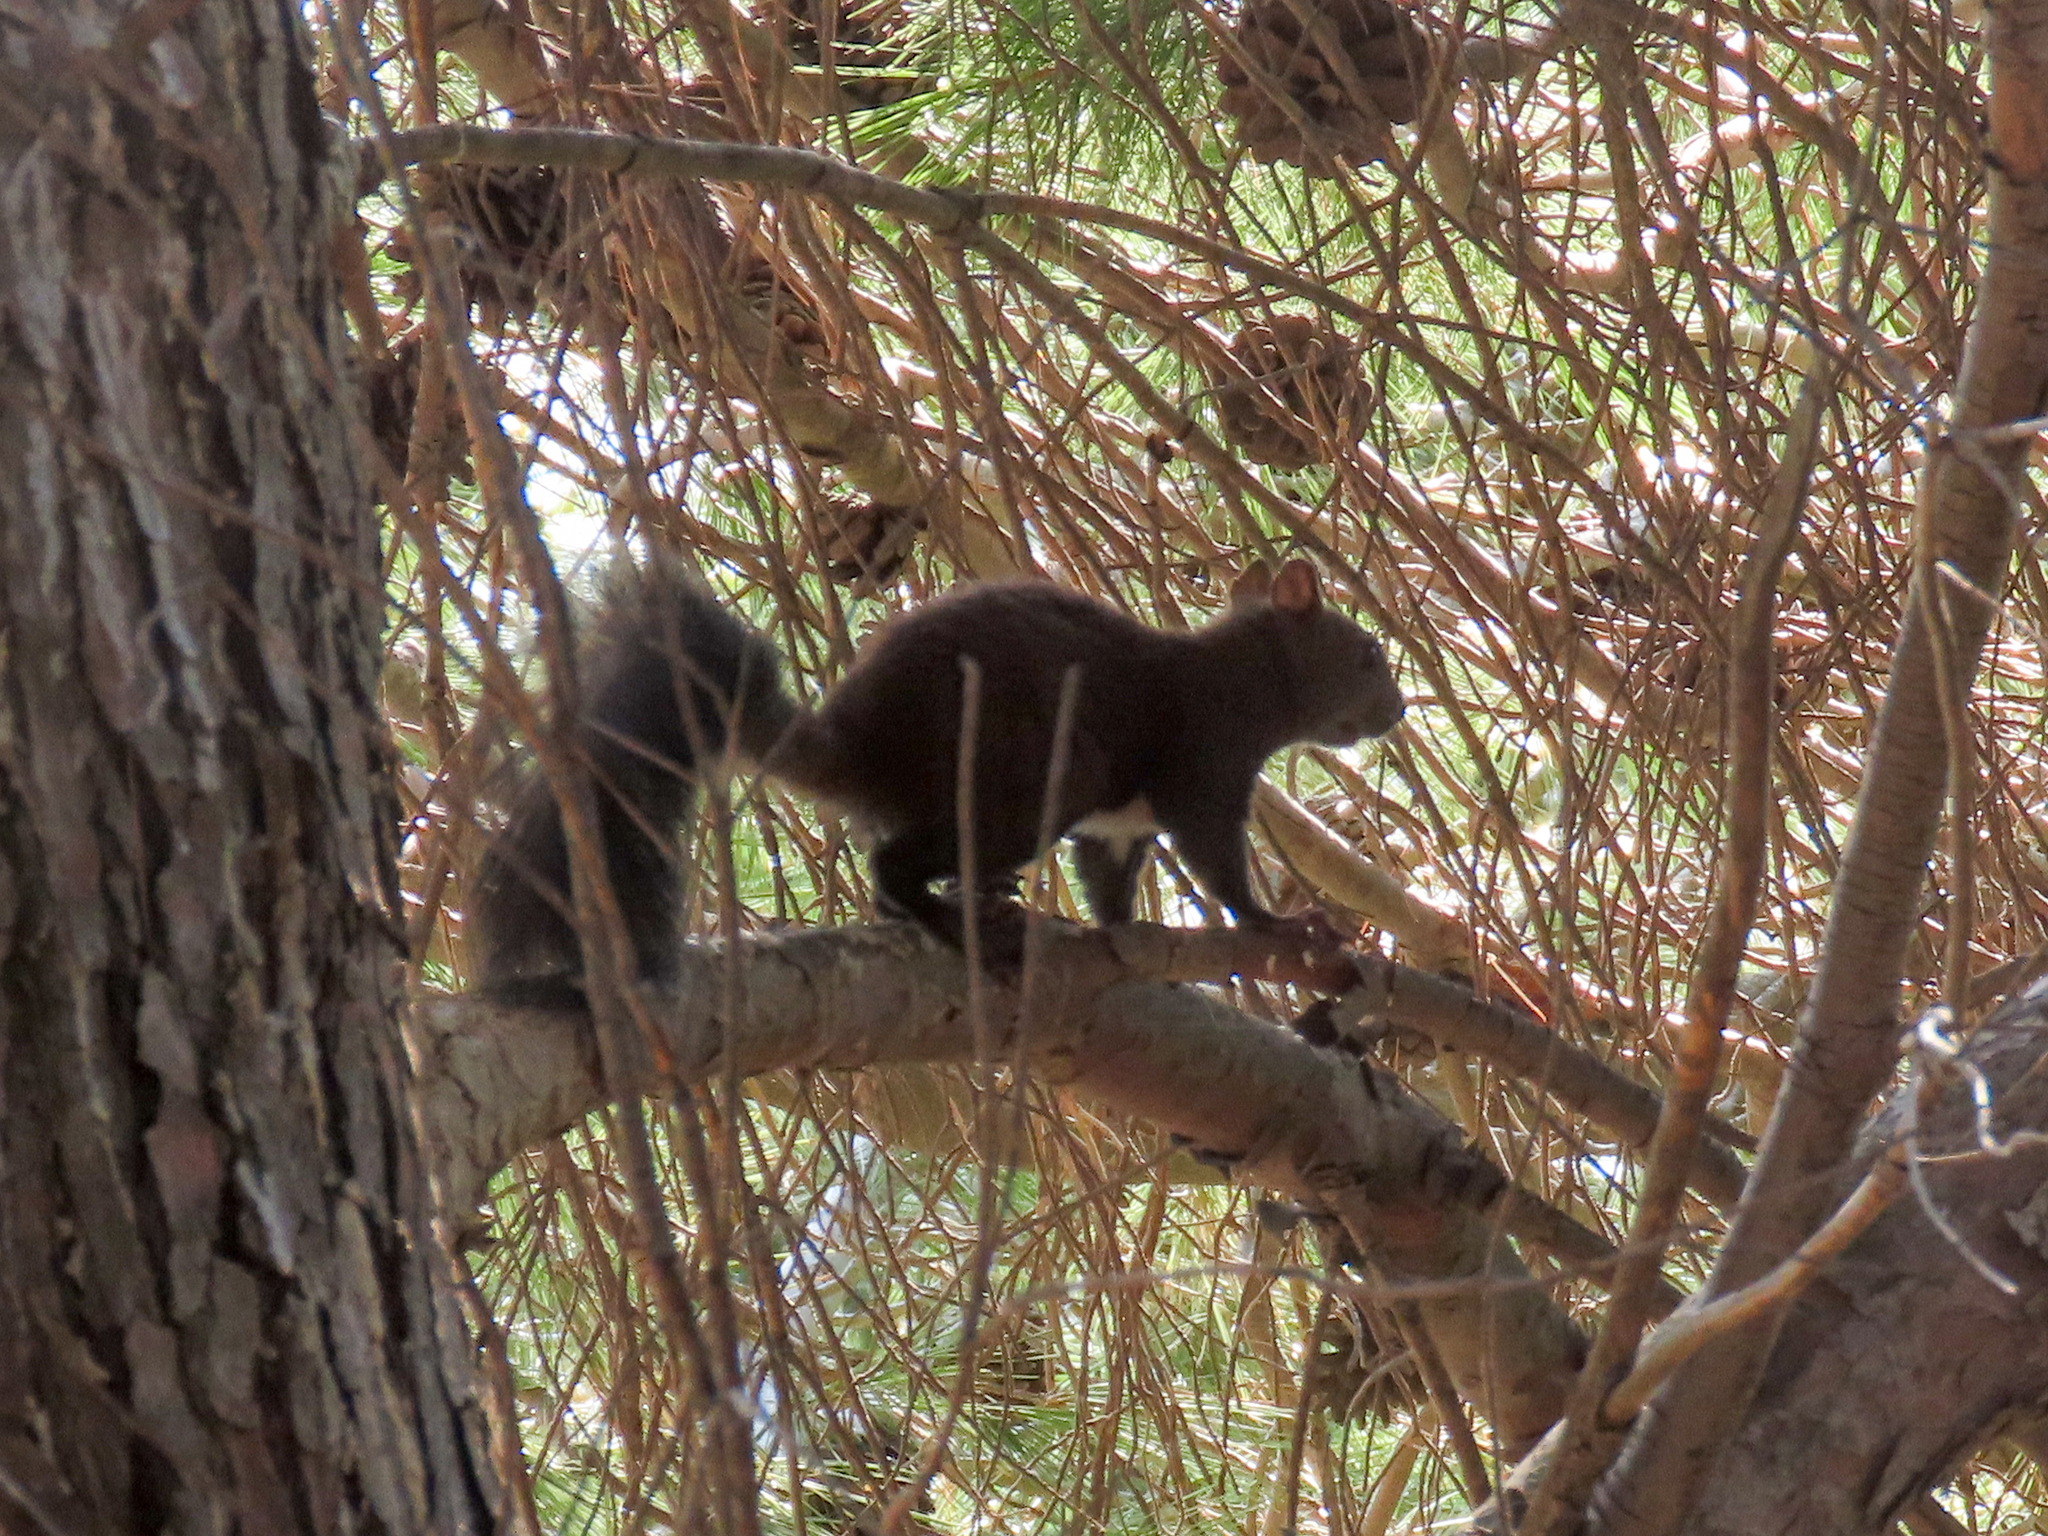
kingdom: Animalia
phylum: Chordata
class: Mammalia
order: Rodentia
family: Sciuridae
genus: Sciurus
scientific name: Sciurus vulgaris
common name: Eurasian red squirrel
